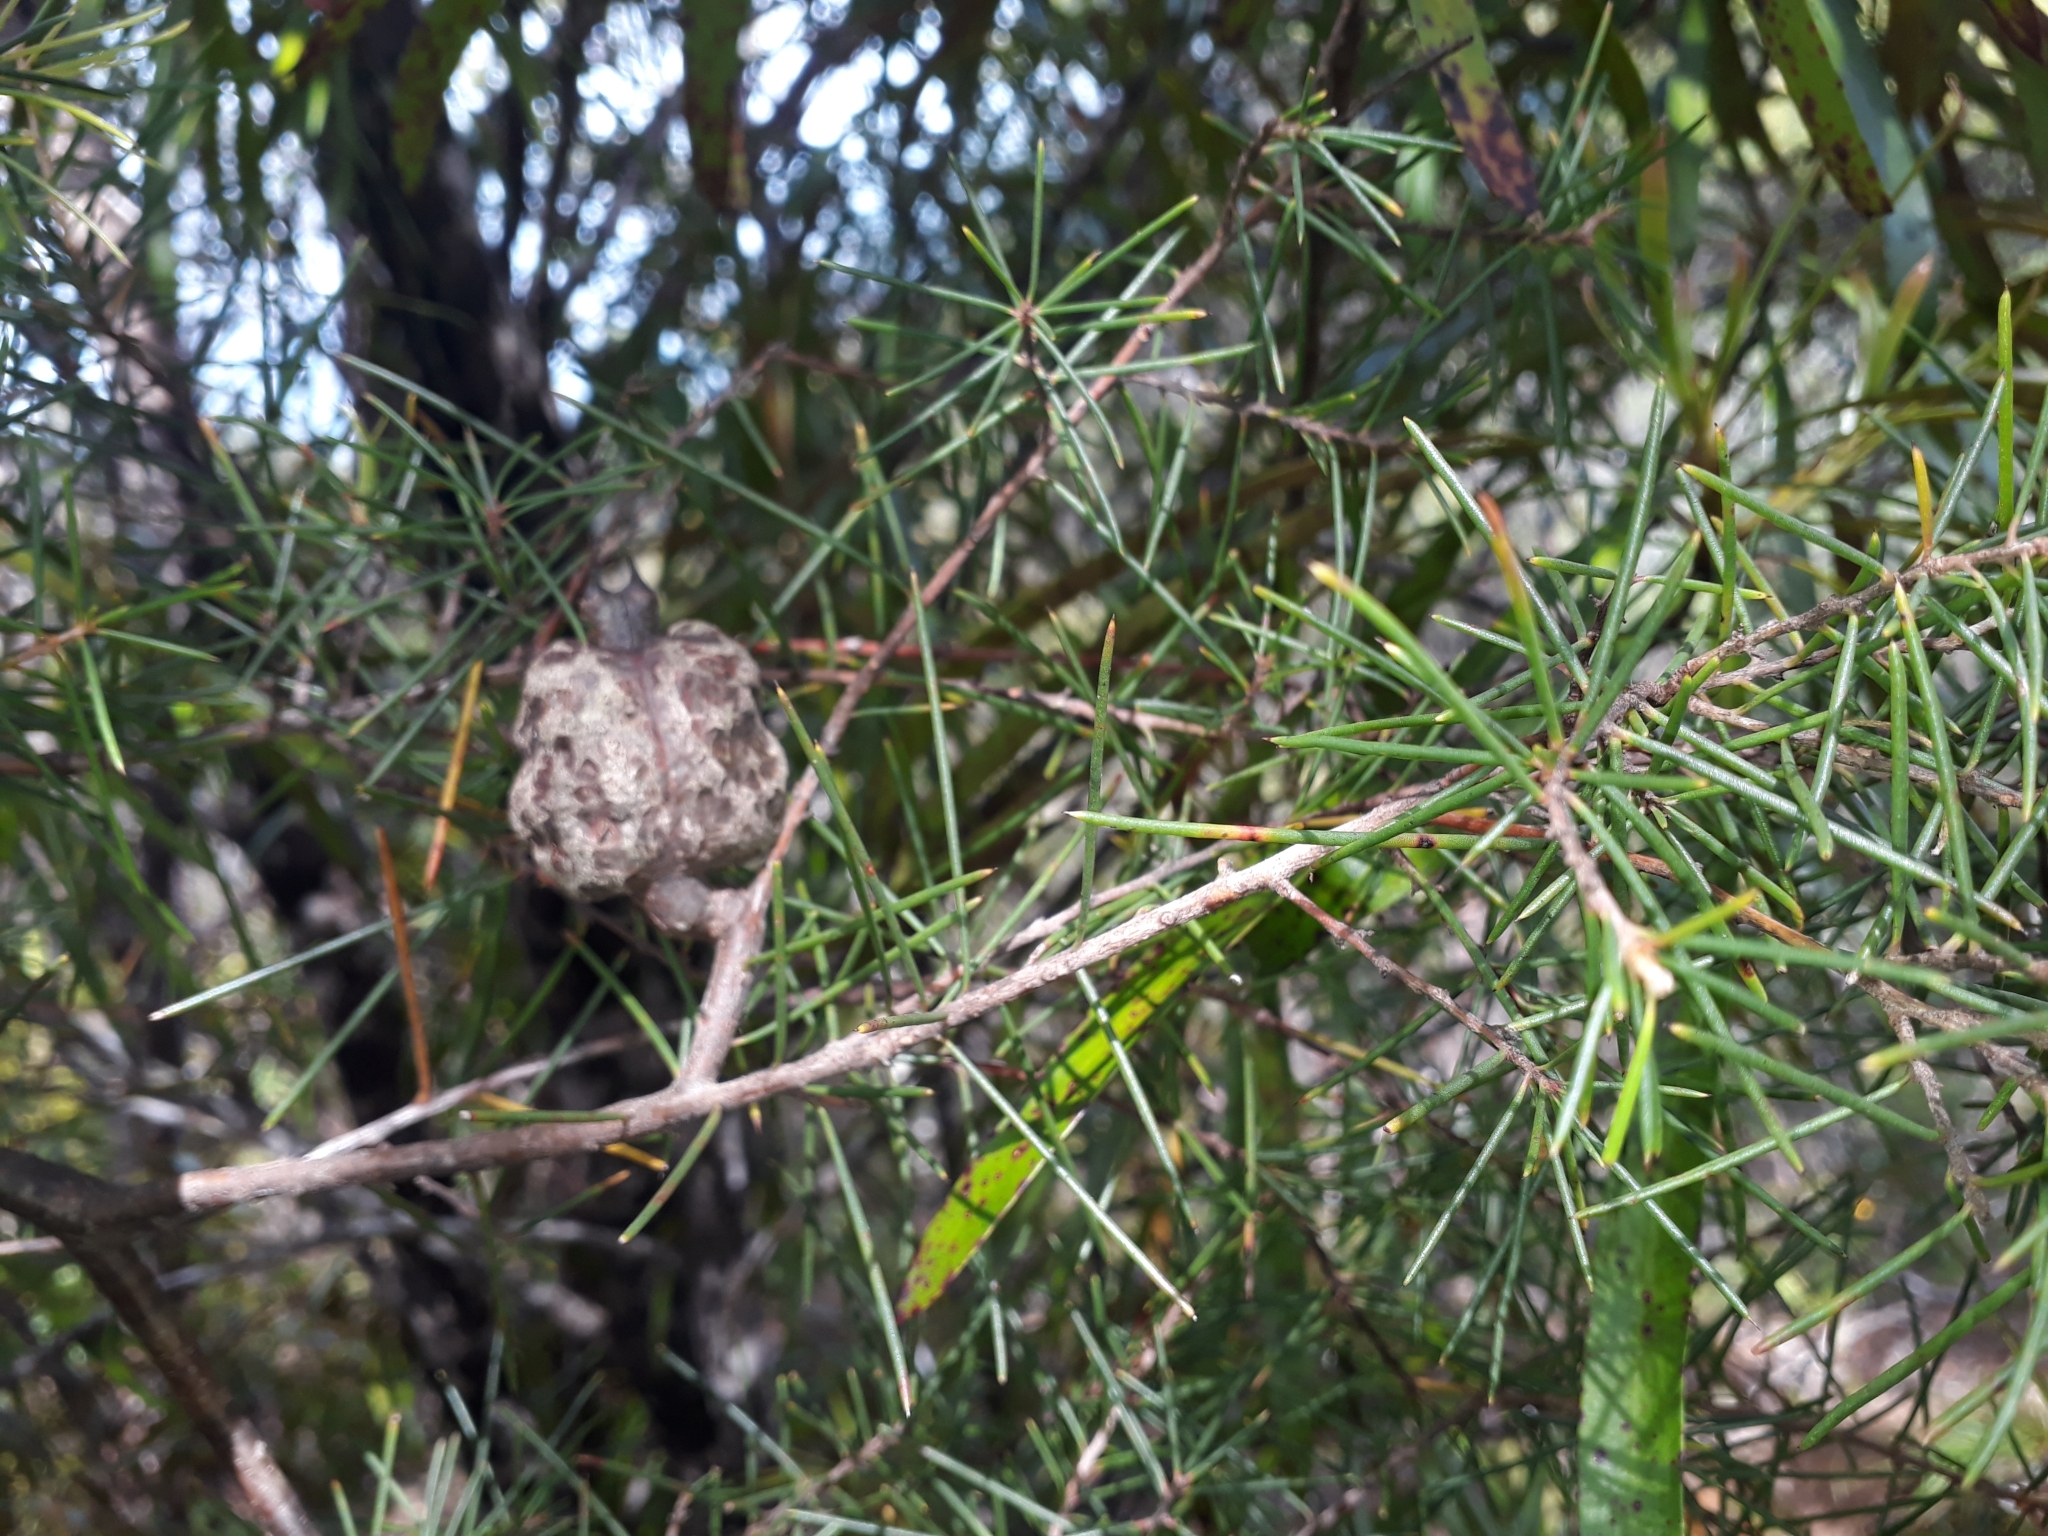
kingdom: Plantae
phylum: Tracheophyta
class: Magnoliopsida
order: Proteales
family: Proteaceae
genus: Hakea
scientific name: Hakea sericea
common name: Needle bush
